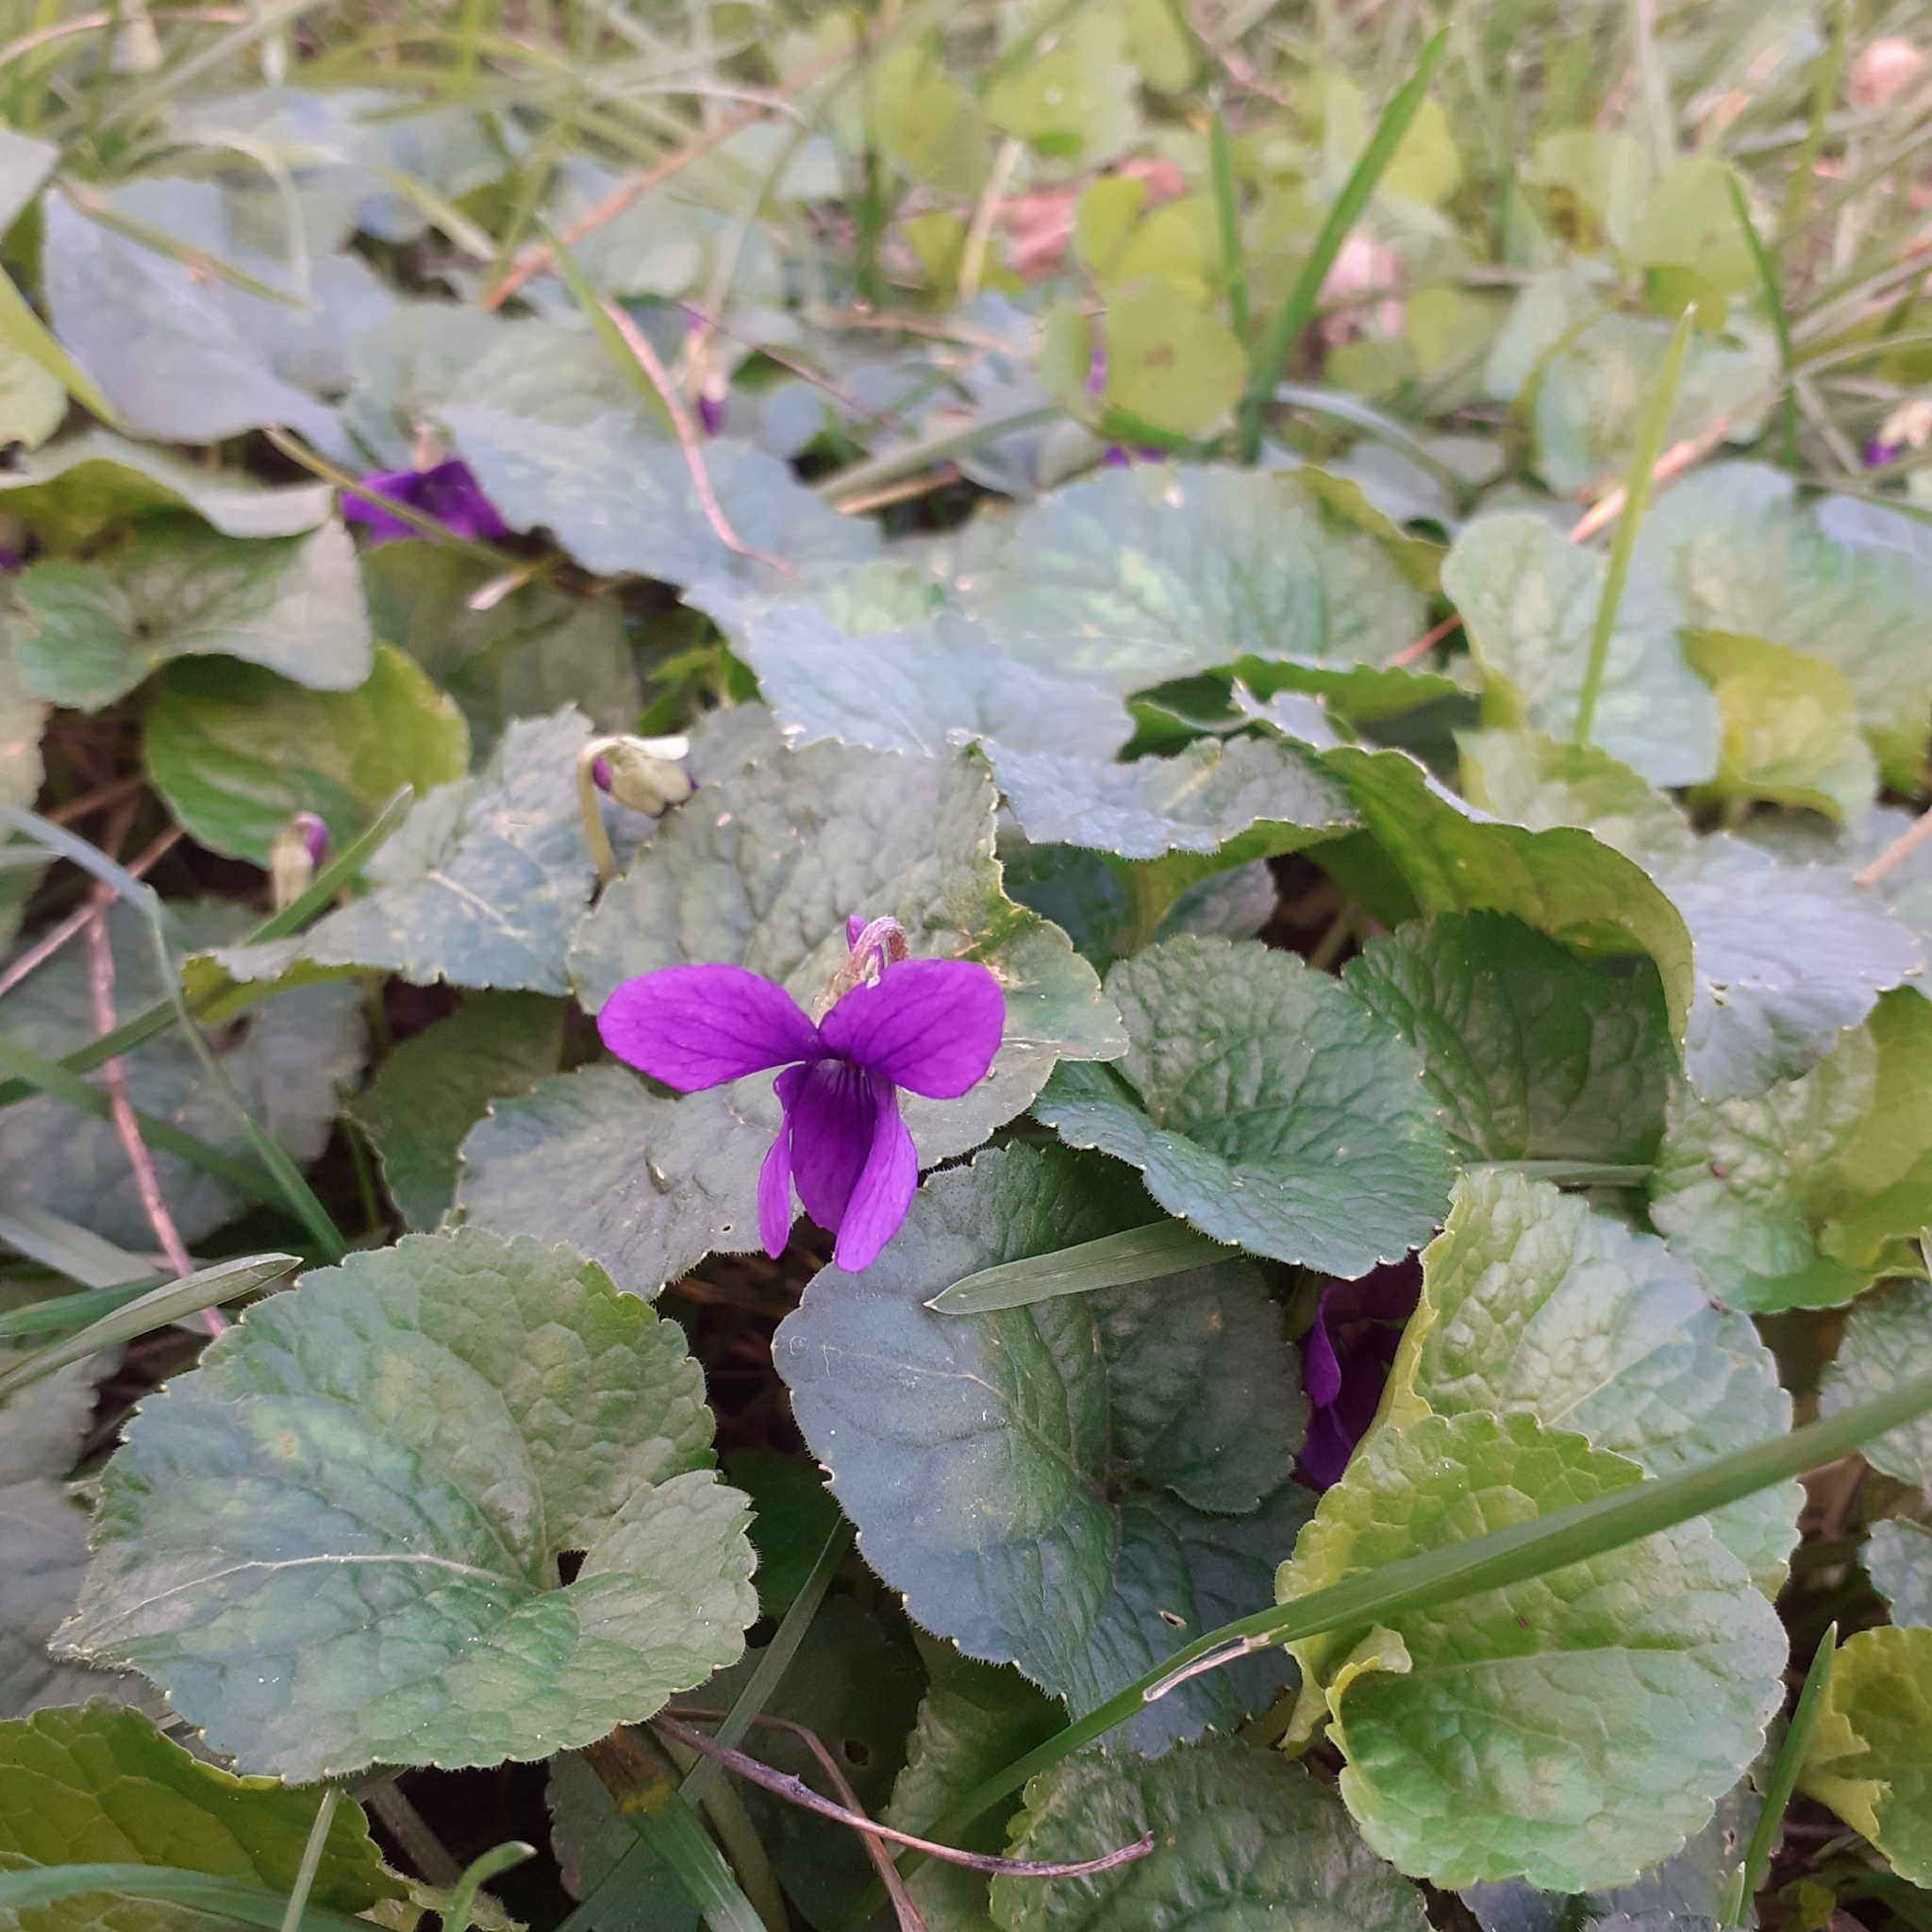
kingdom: Plantae
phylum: Tracheophyta
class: Magnoliopsida
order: Malpighiales
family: Violaceae
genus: Viola
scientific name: Viola odorata
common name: Sweet violet
